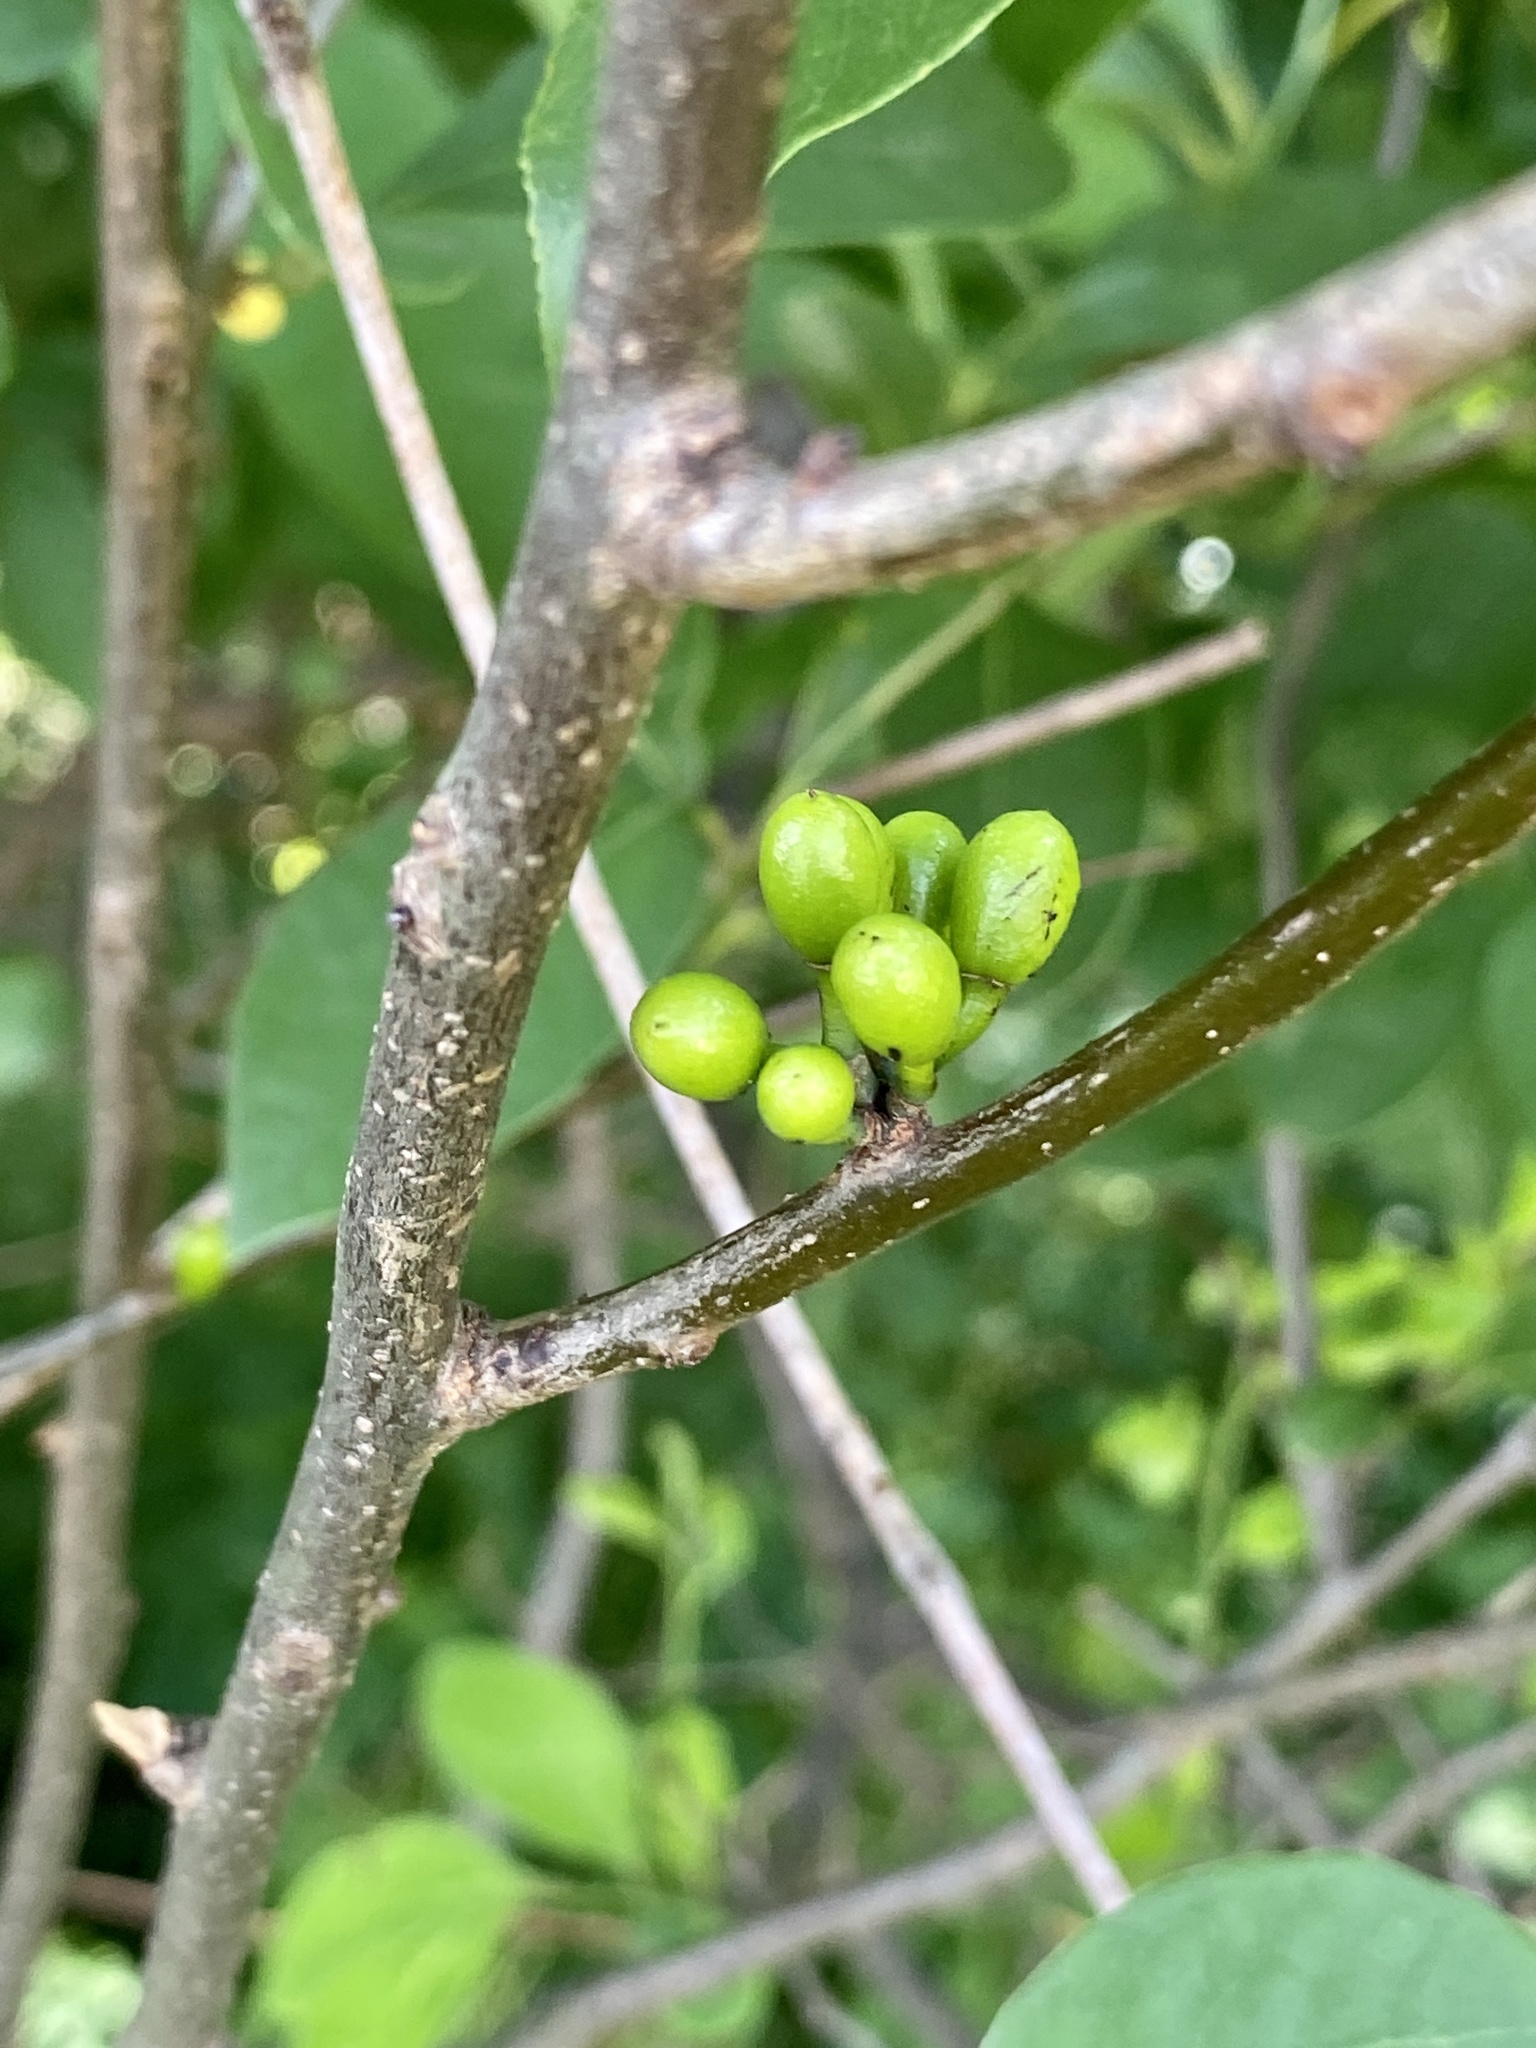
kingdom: Plantae
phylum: Tracheophyta
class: Magnoliopsida
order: Laurales
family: Lauraceae
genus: Lindera
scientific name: Lindera benzoin
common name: Spicebush
